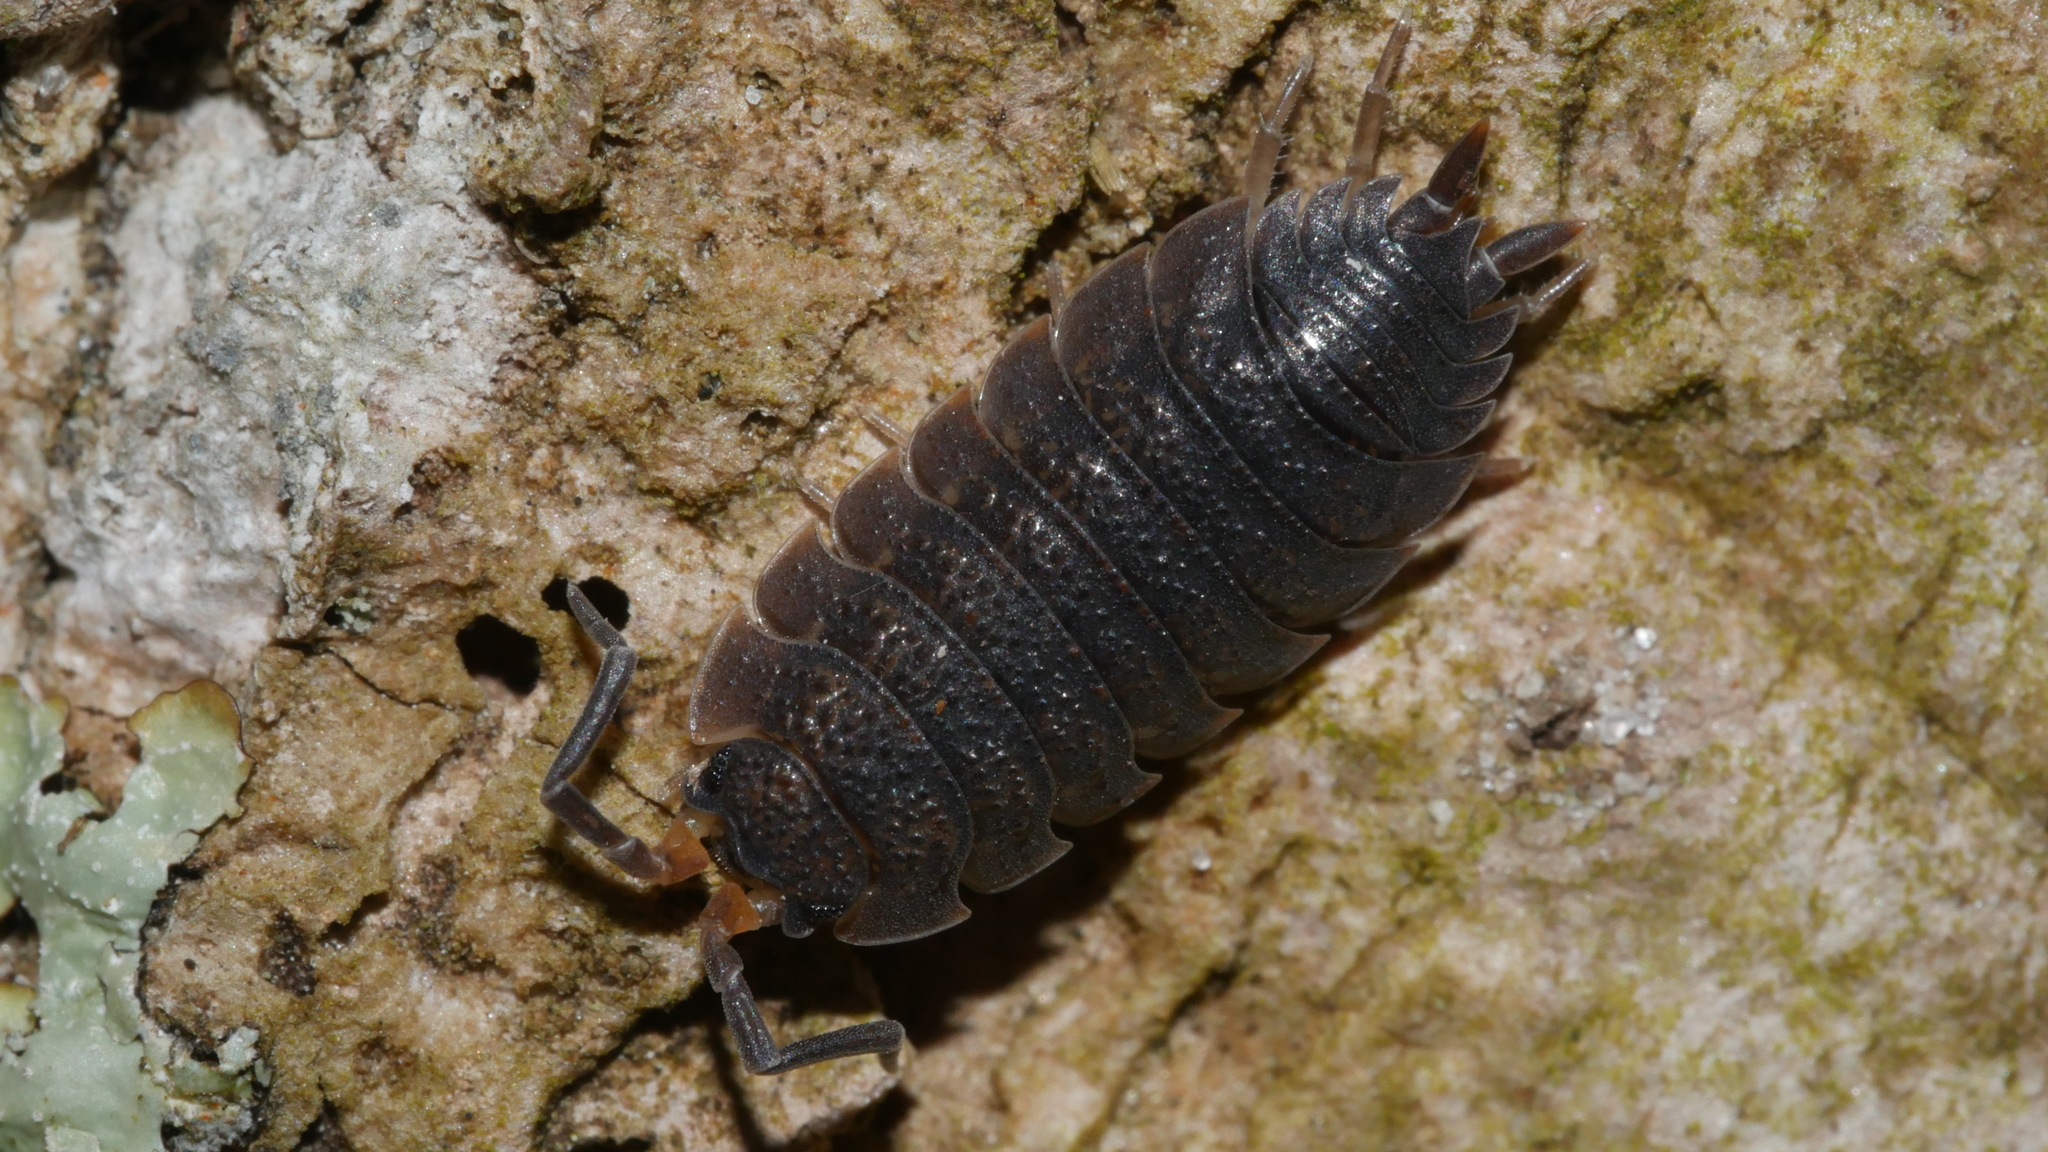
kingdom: Animalia
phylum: Arthropoda
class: Malacostraca
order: Isopoda
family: Porcellionidae
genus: Porcellio
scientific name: Porcellio scaber
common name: Common rough woodlouse
